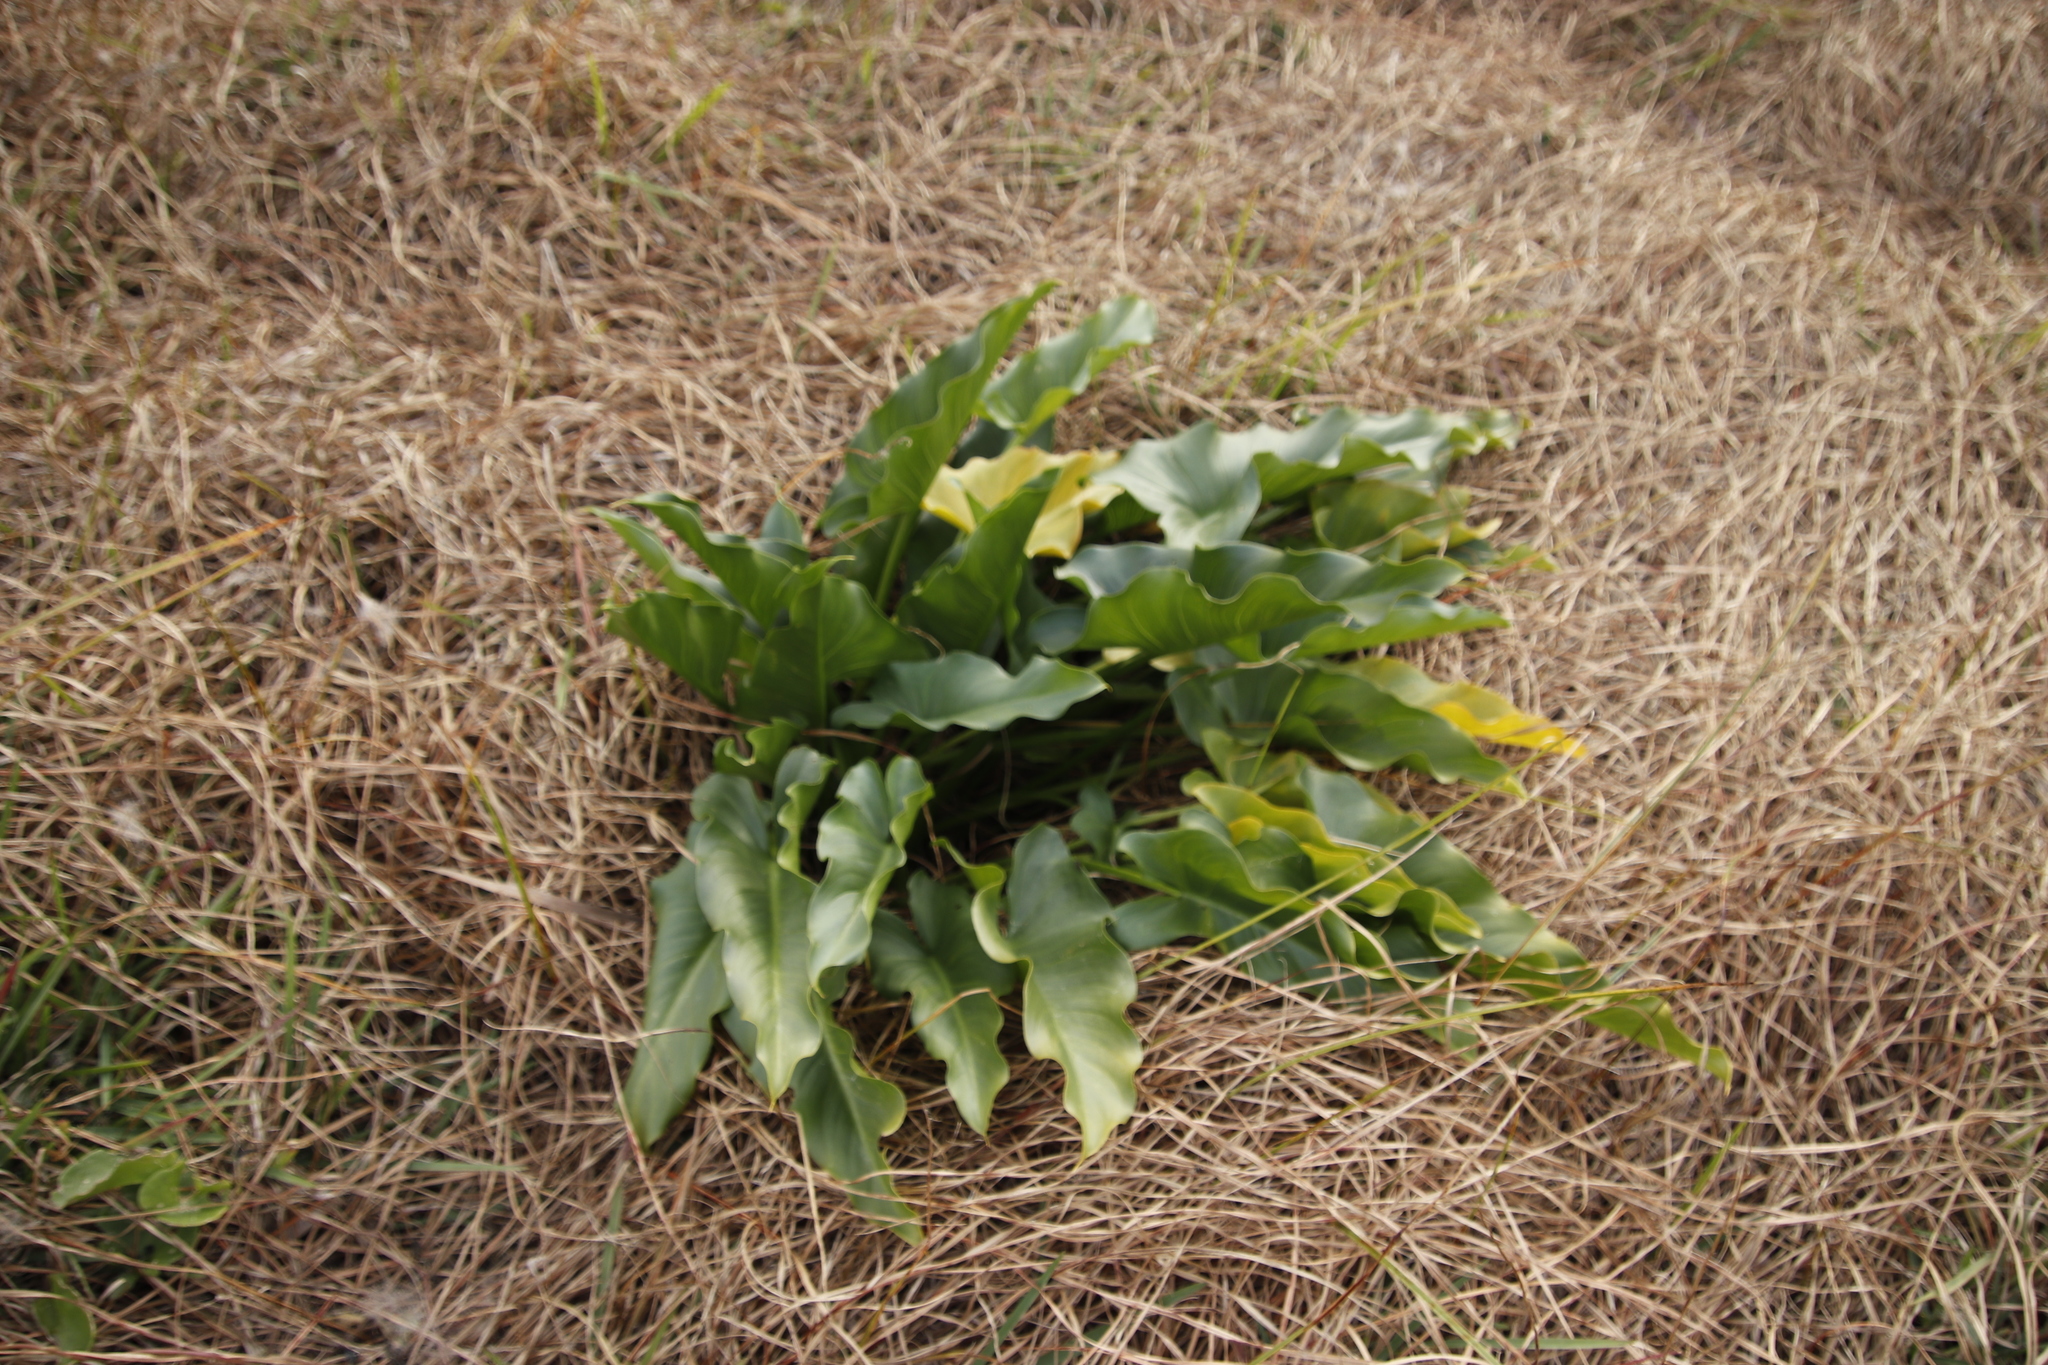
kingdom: Plantae
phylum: Tracheophyta
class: Liliopsida
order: Alismatales
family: Araceae
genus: Zantedeschia
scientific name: Zantedeschia aethiopica
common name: Altar-lily
